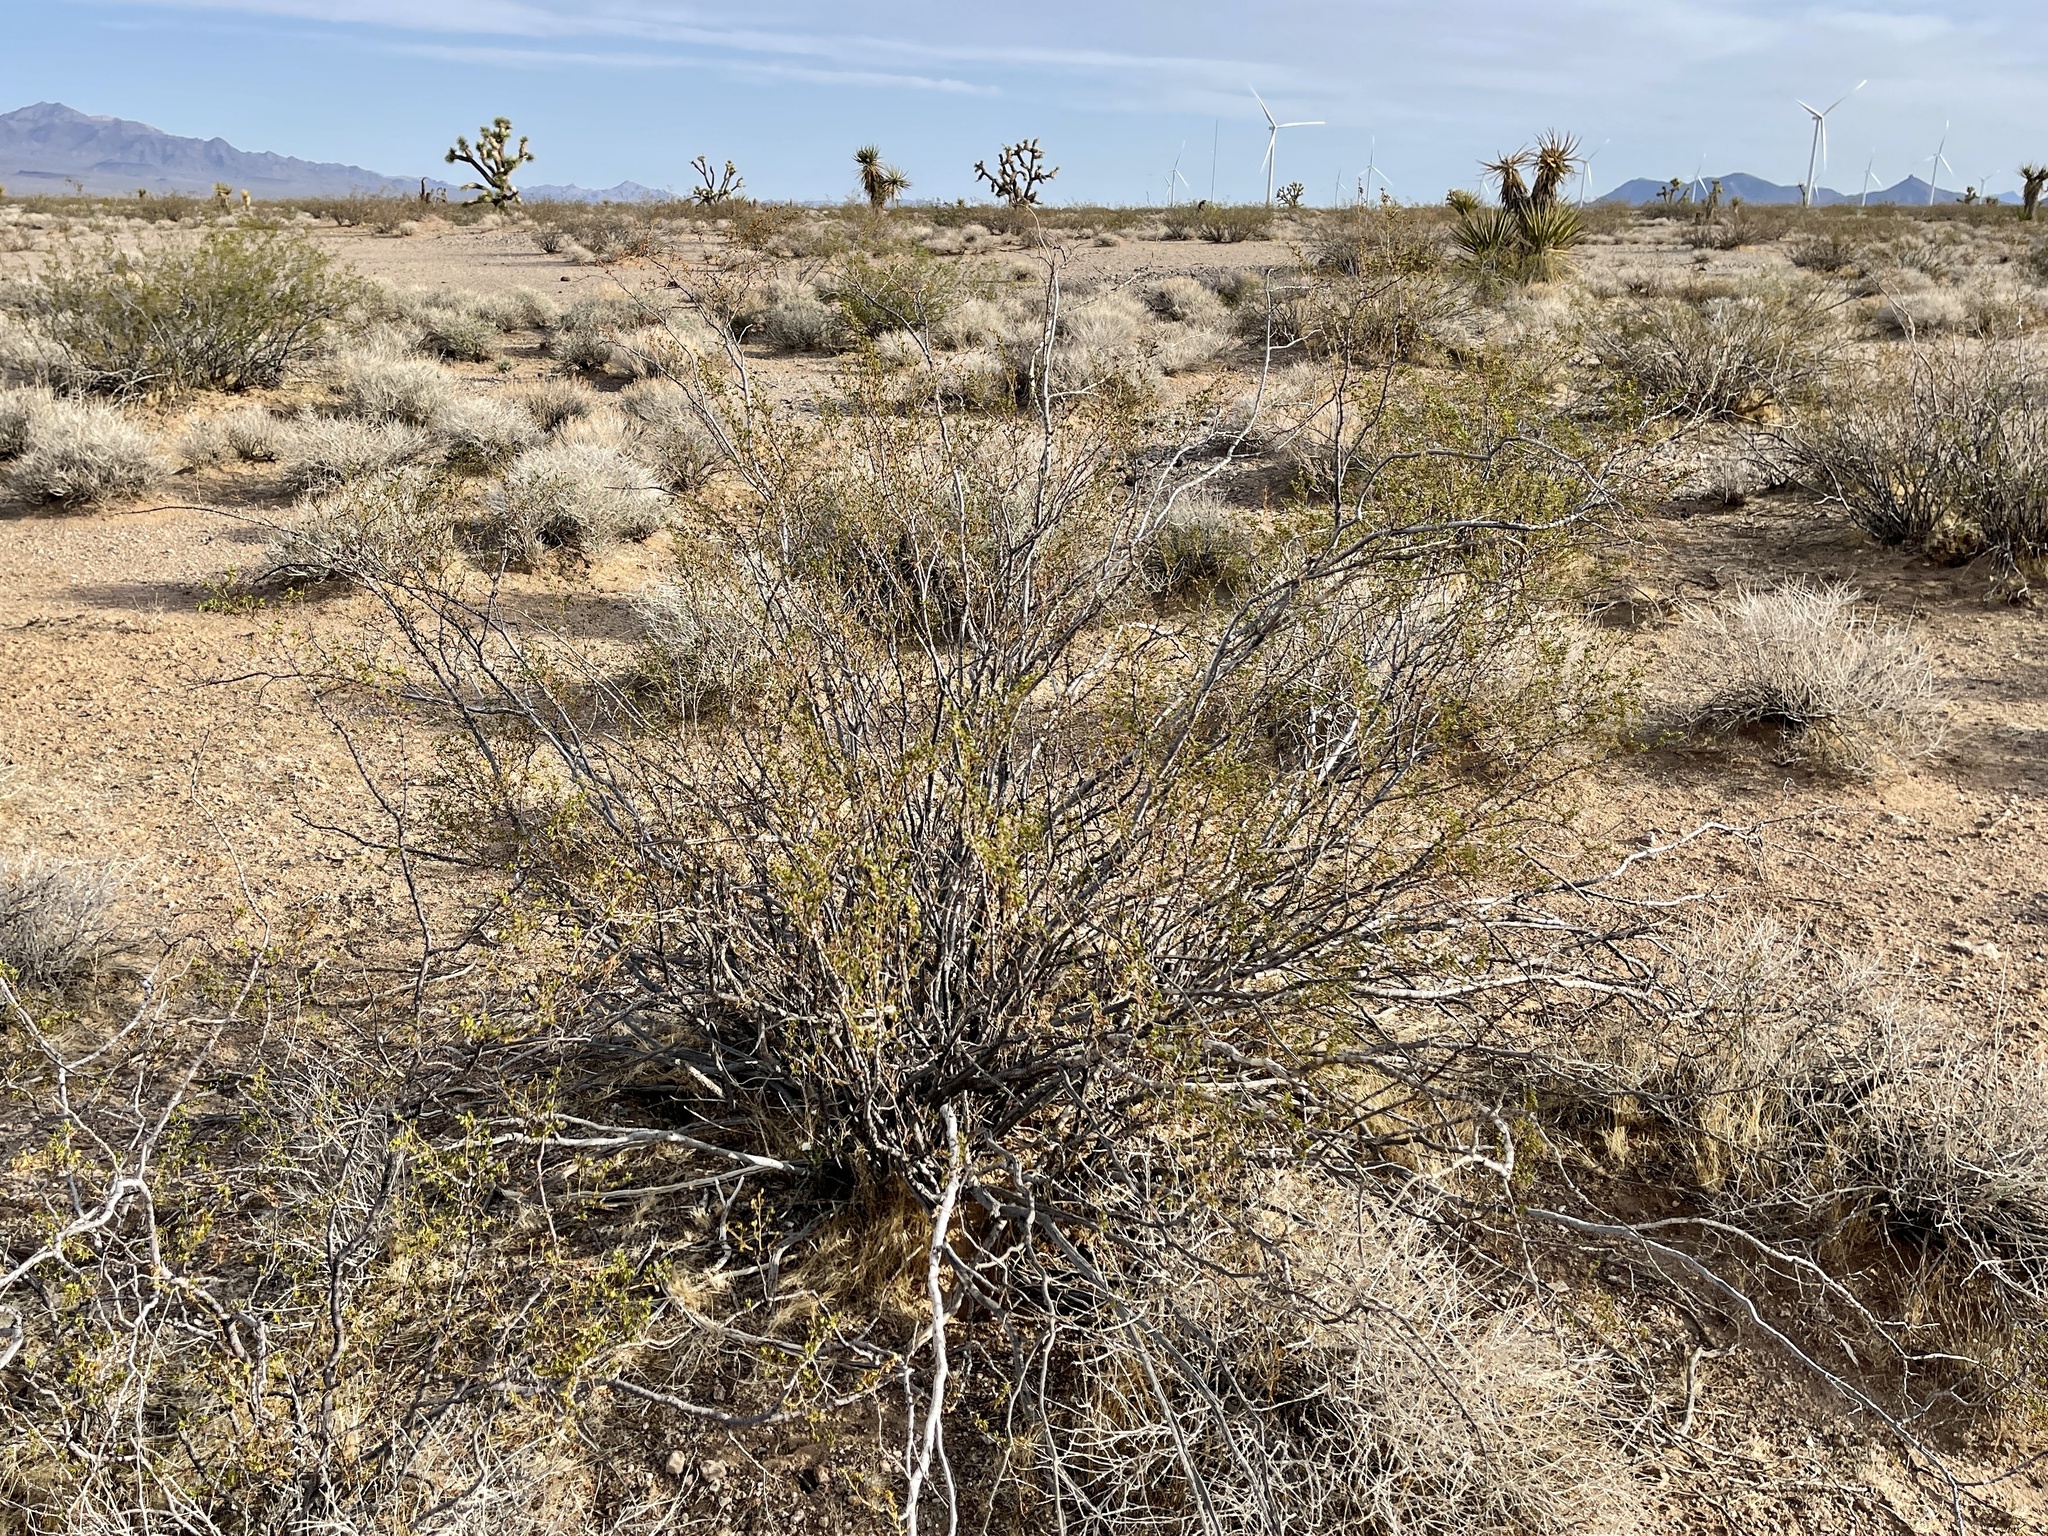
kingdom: Plantae
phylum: Tracheophyta
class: Magnoliopsida
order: Zygophyllales
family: Zygophyllaceae
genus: Larrea
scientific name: Larrea tridentata
